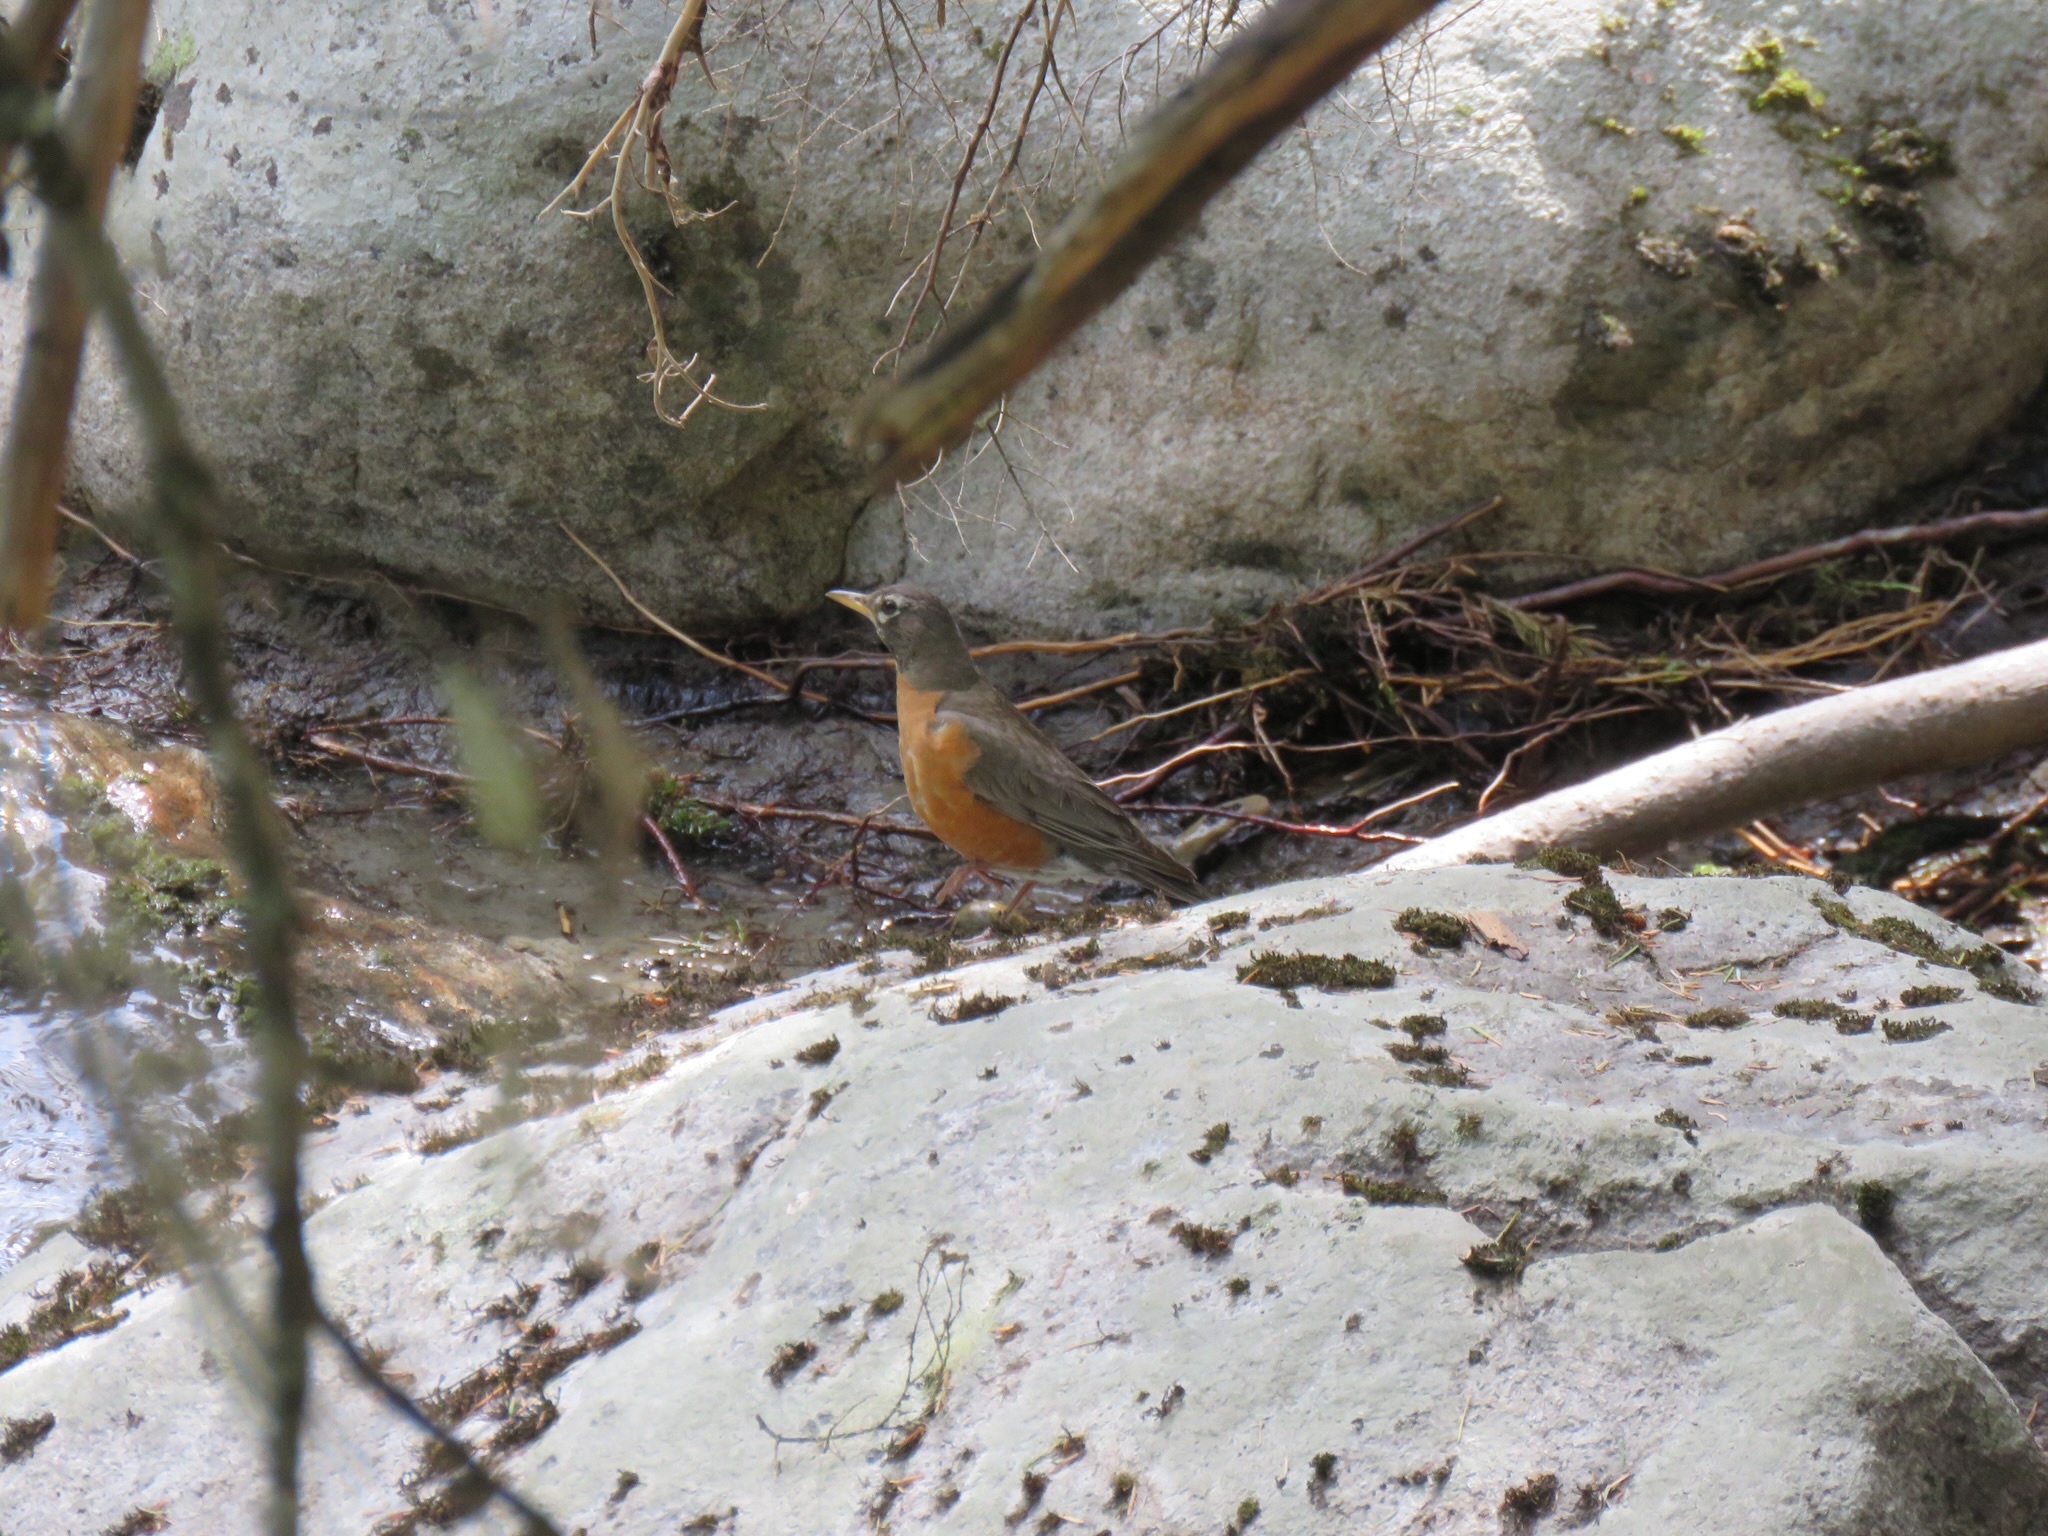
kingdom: Animalia
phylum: Chordata
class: Aves
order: Passeriformes
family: Turdidae
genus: Turdus
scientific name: Turdus migratorius
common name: American robin
